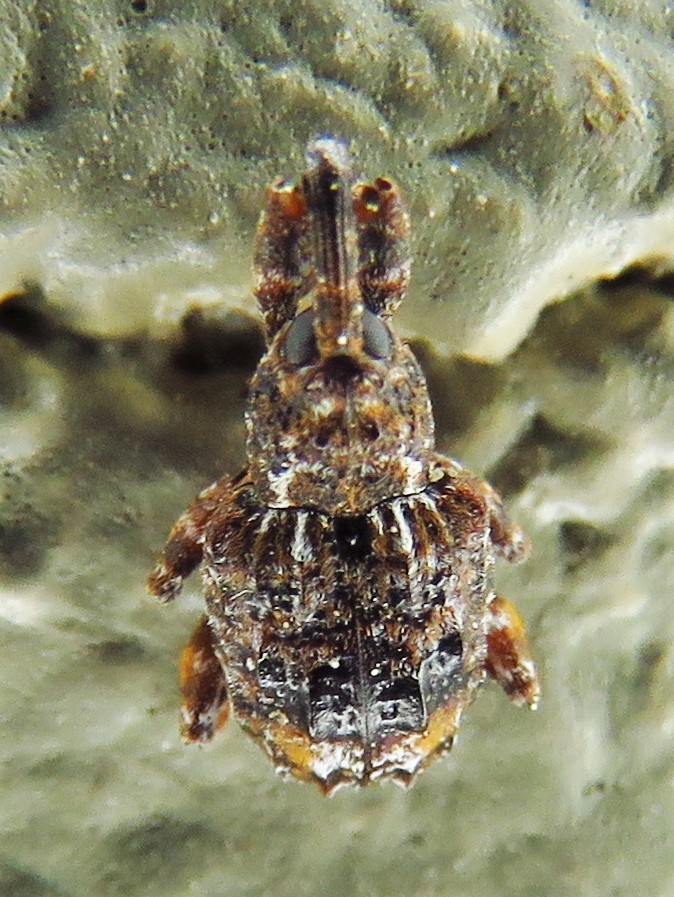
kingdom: Animalia
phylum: Arthropoda
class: Insecta
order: Coleoptera
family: Curculionidae
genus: Conotrachelus
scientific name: Conotrachelus nenuphar
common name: Plum curculio
